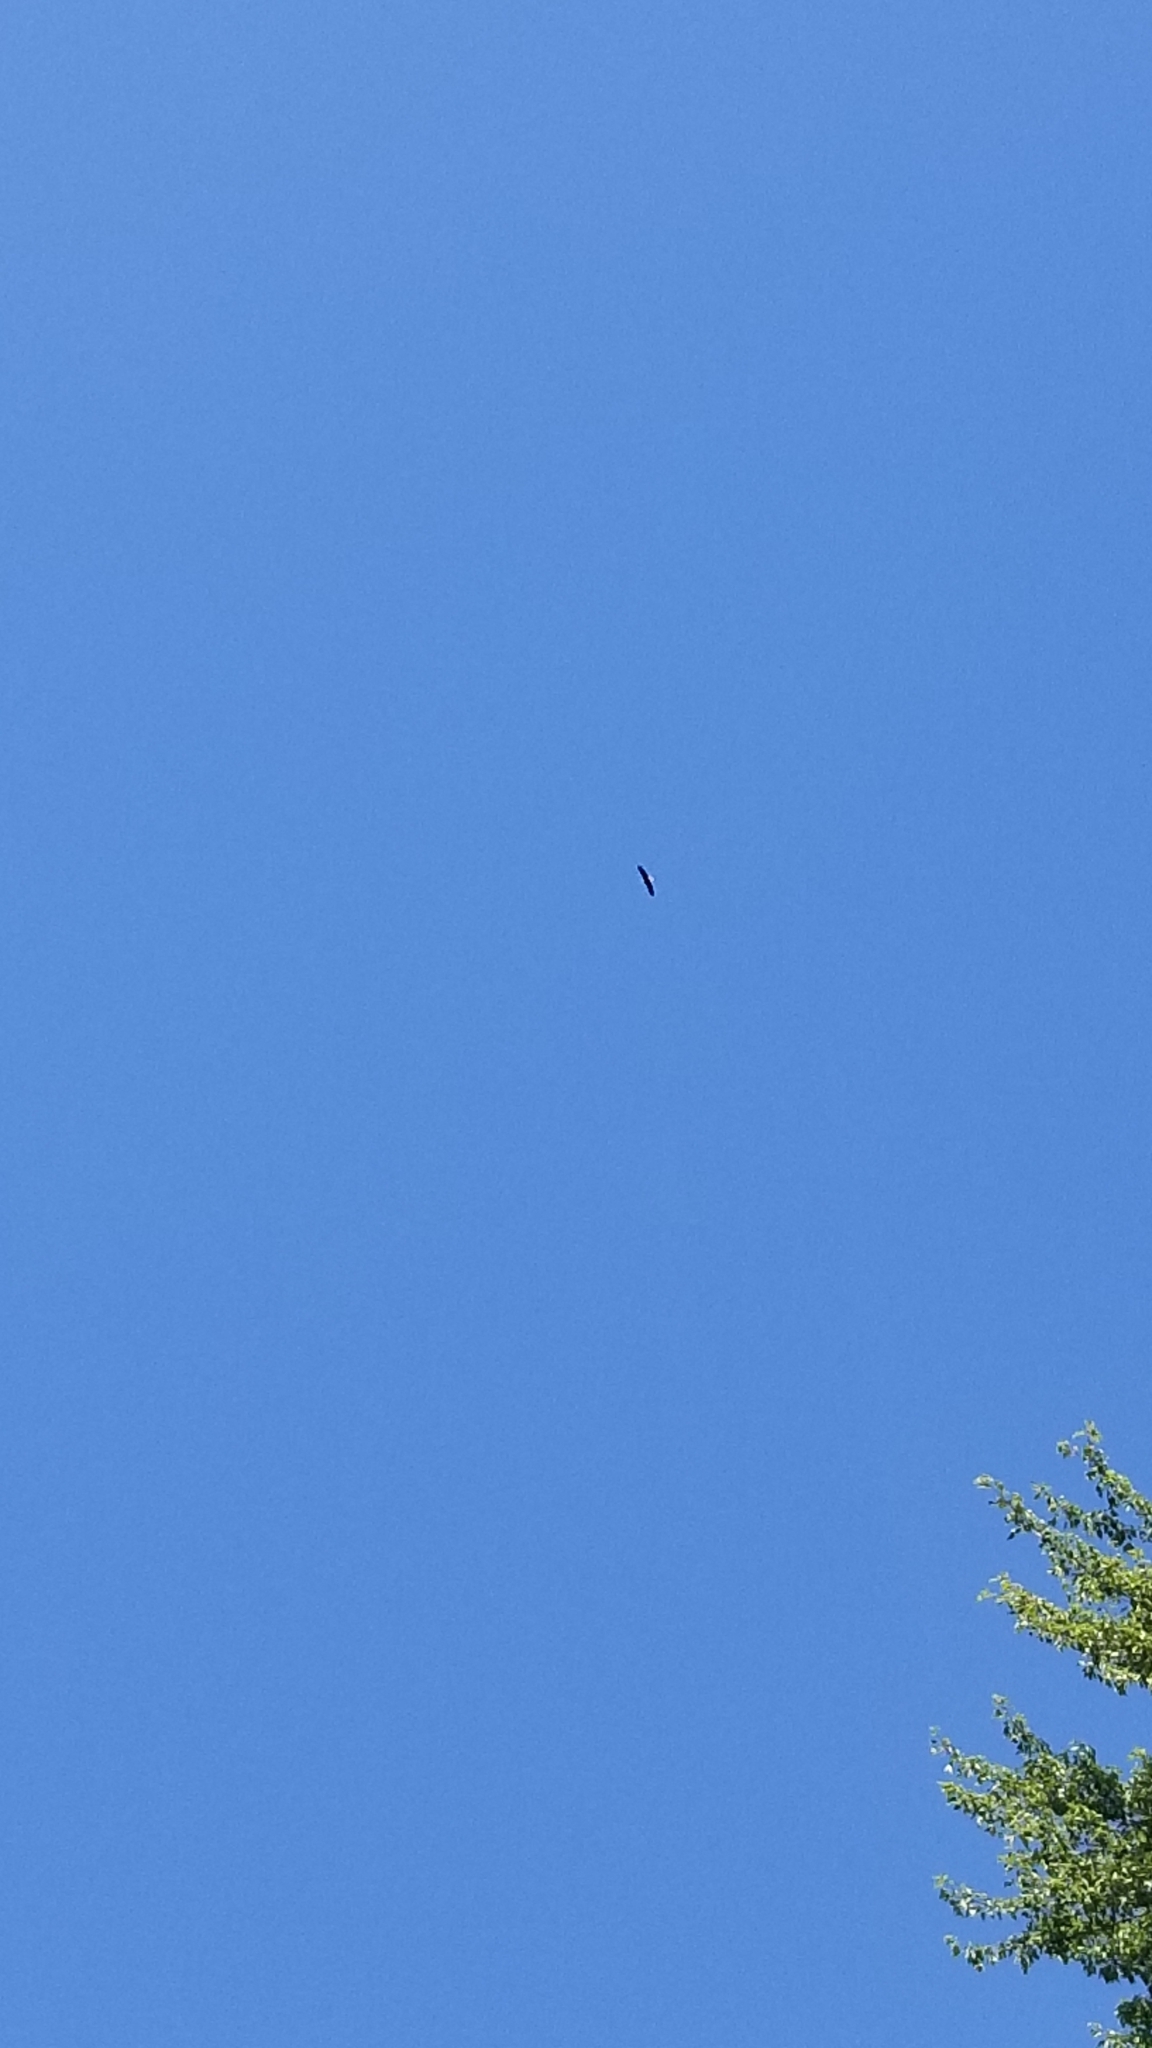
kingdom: Animalia
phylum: Chordata
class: Aves
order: Accipitriformes
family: Accipitridae
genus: Haliaeetus
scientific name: Haliaeetus leucocephalus
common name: Bald eagle
